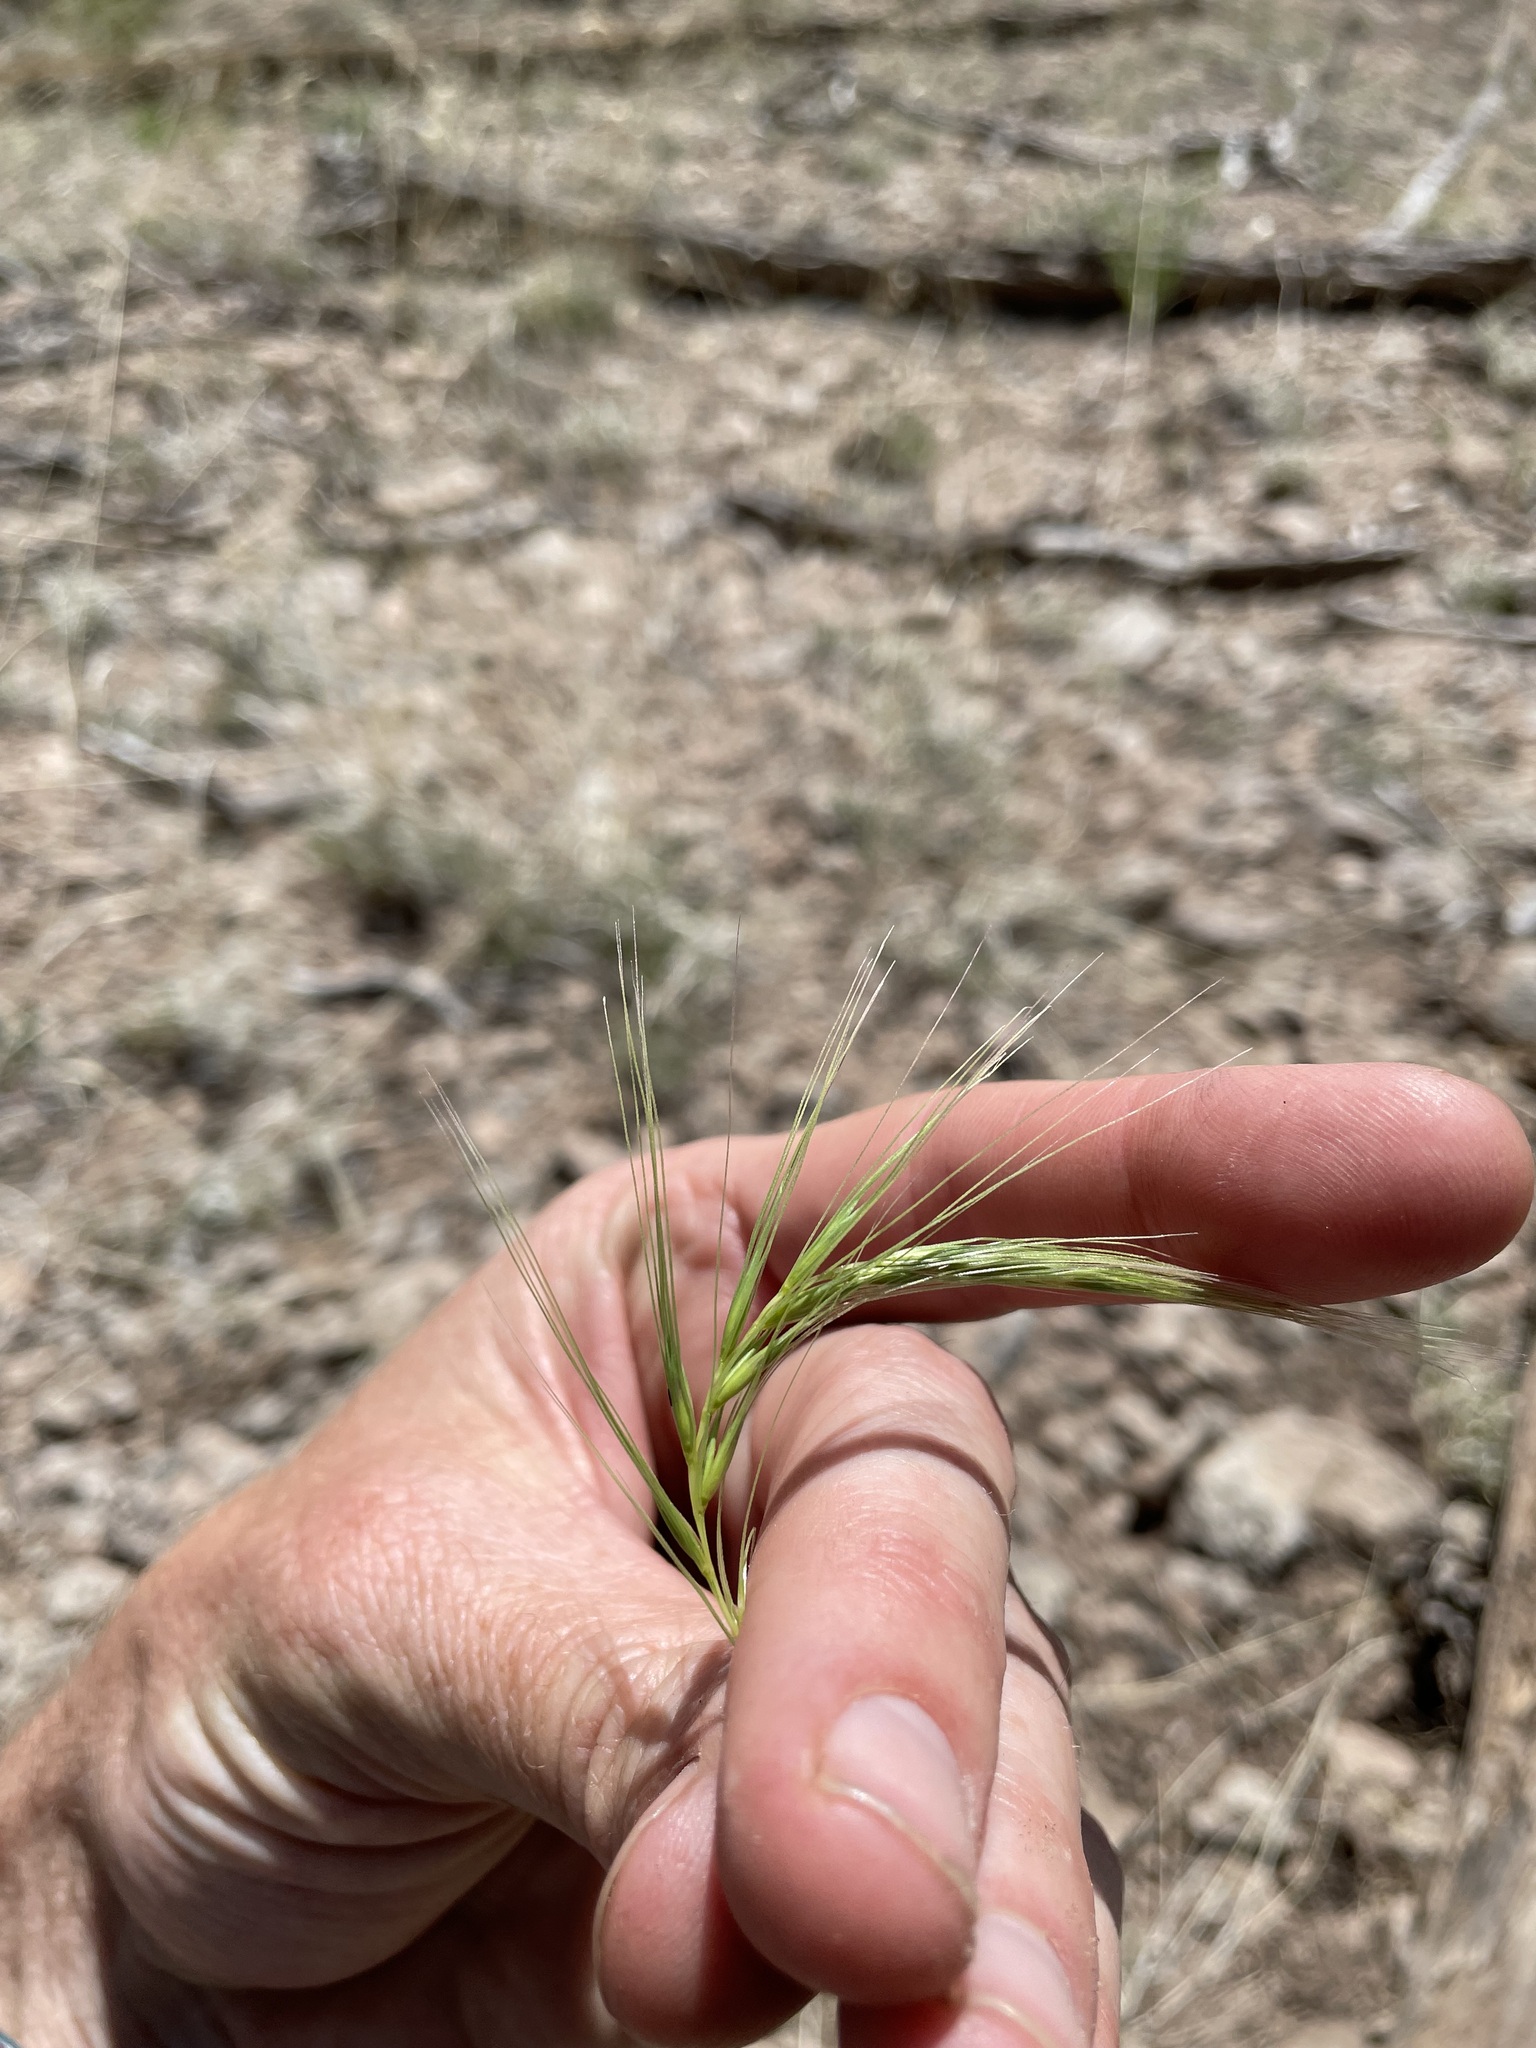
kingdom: Plantae
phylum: Tracheophyta
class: Liliopsida
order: Poales
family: Poaceae
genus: Elymus
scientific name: Elymus longifolius
